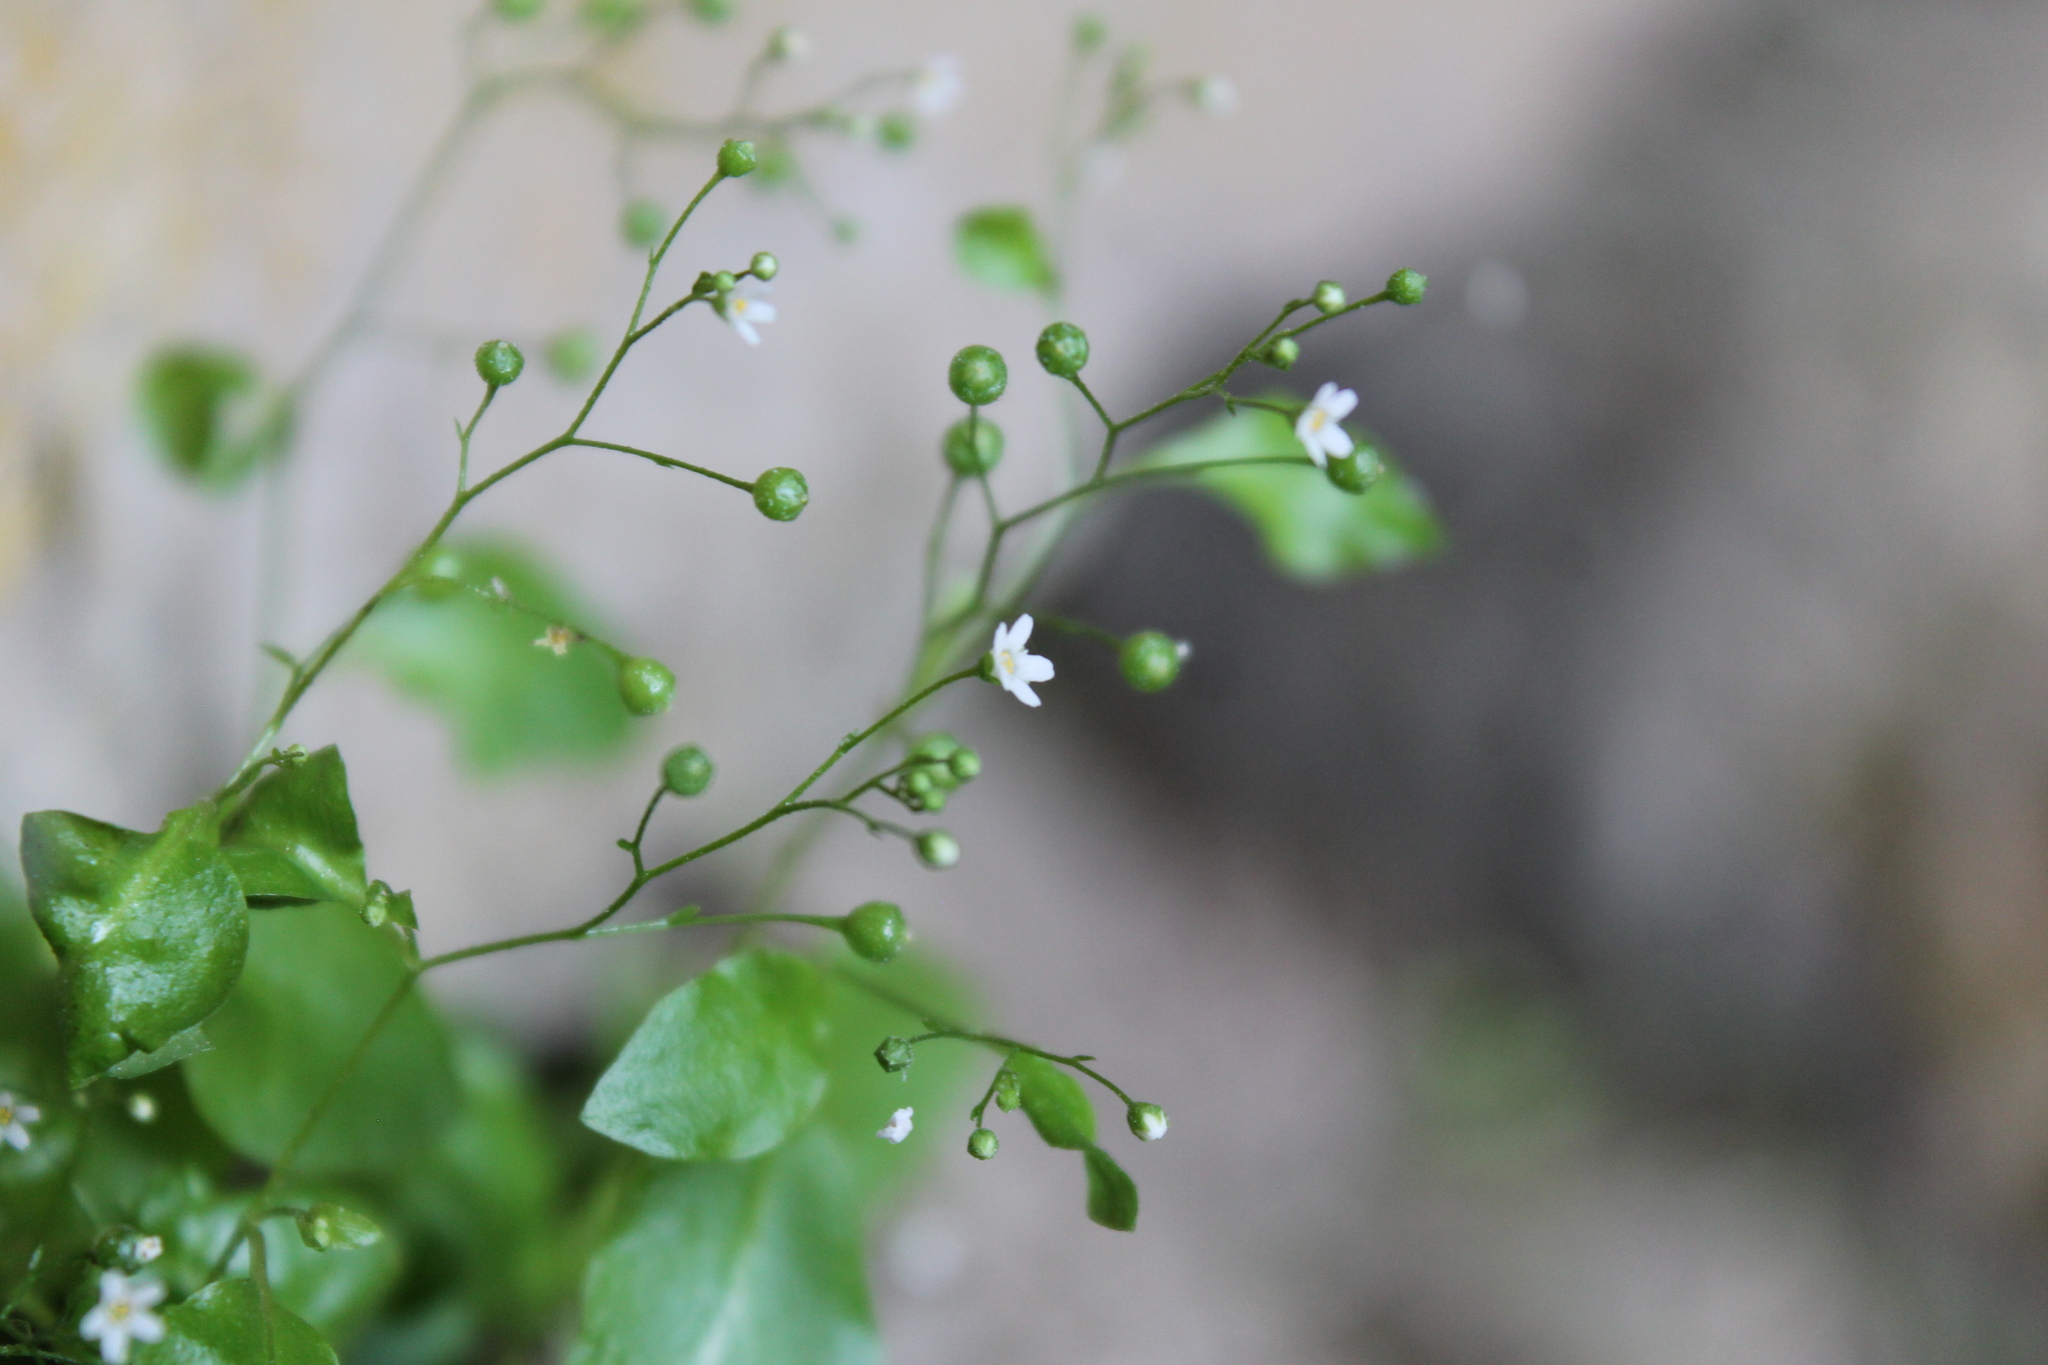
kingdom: Plantae
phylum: Tracheophyta
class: Magnoliopsida
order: Ericales
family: Primulaceae
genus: Samolus
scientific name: Samolus parviflorus
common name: False water pimpernel
